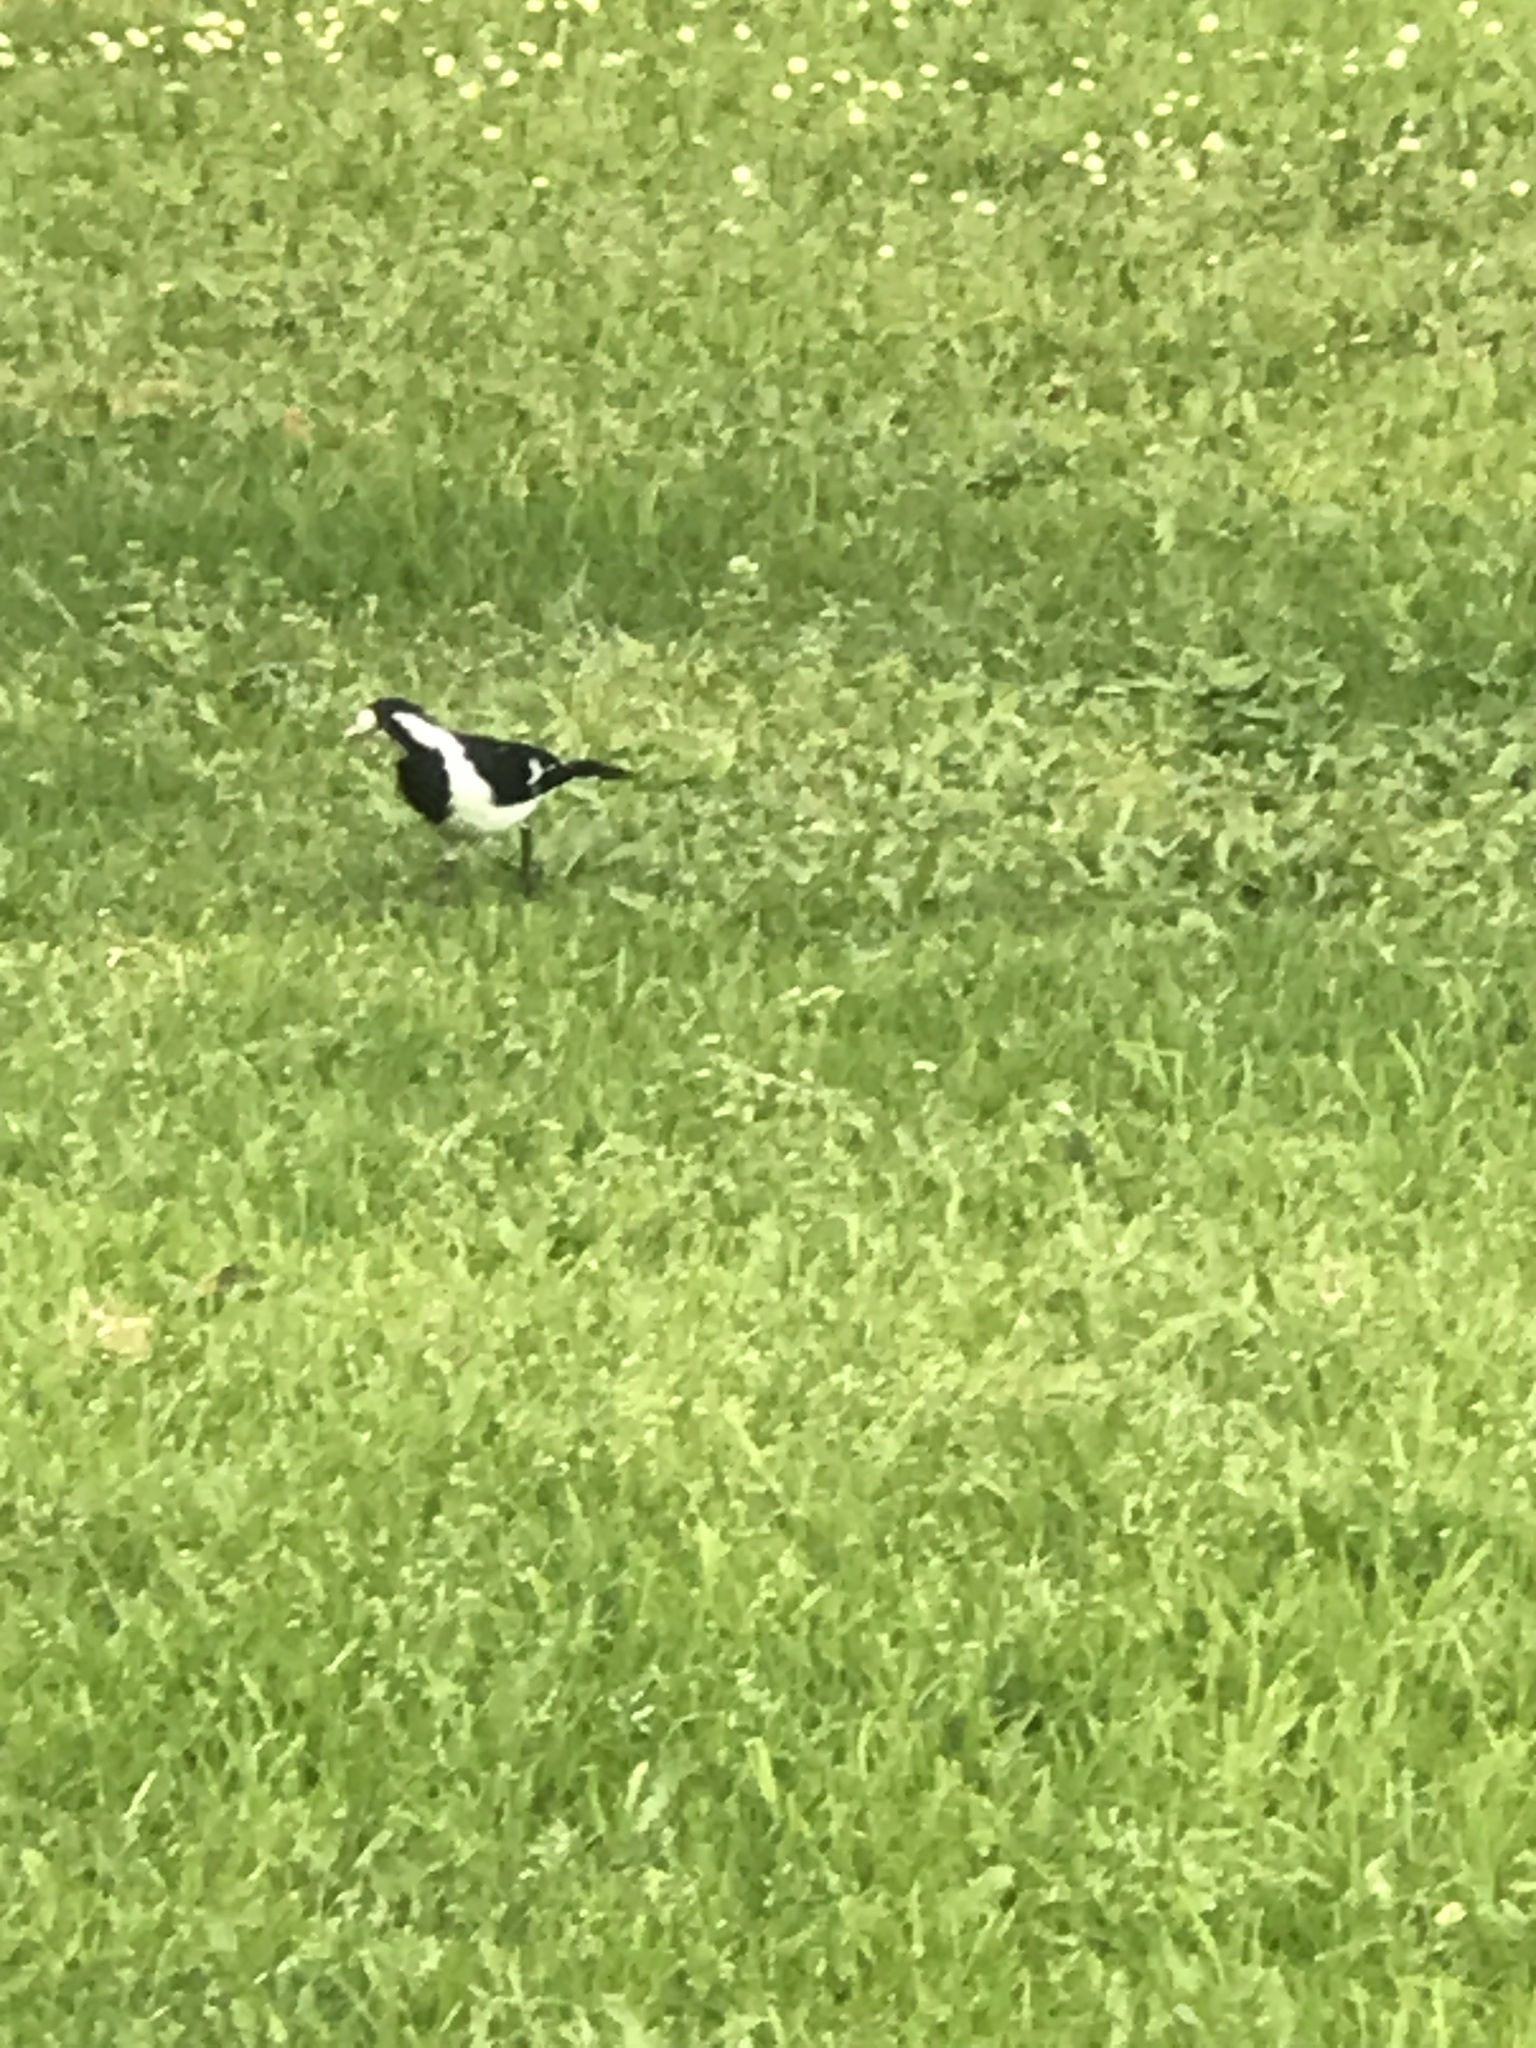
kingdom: Animalia
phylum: Chordata
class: Aves
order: Passeriformes
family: Monarchidae
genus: Grallina
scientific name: Grallina cyanoleuca
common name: Magpie-lark
